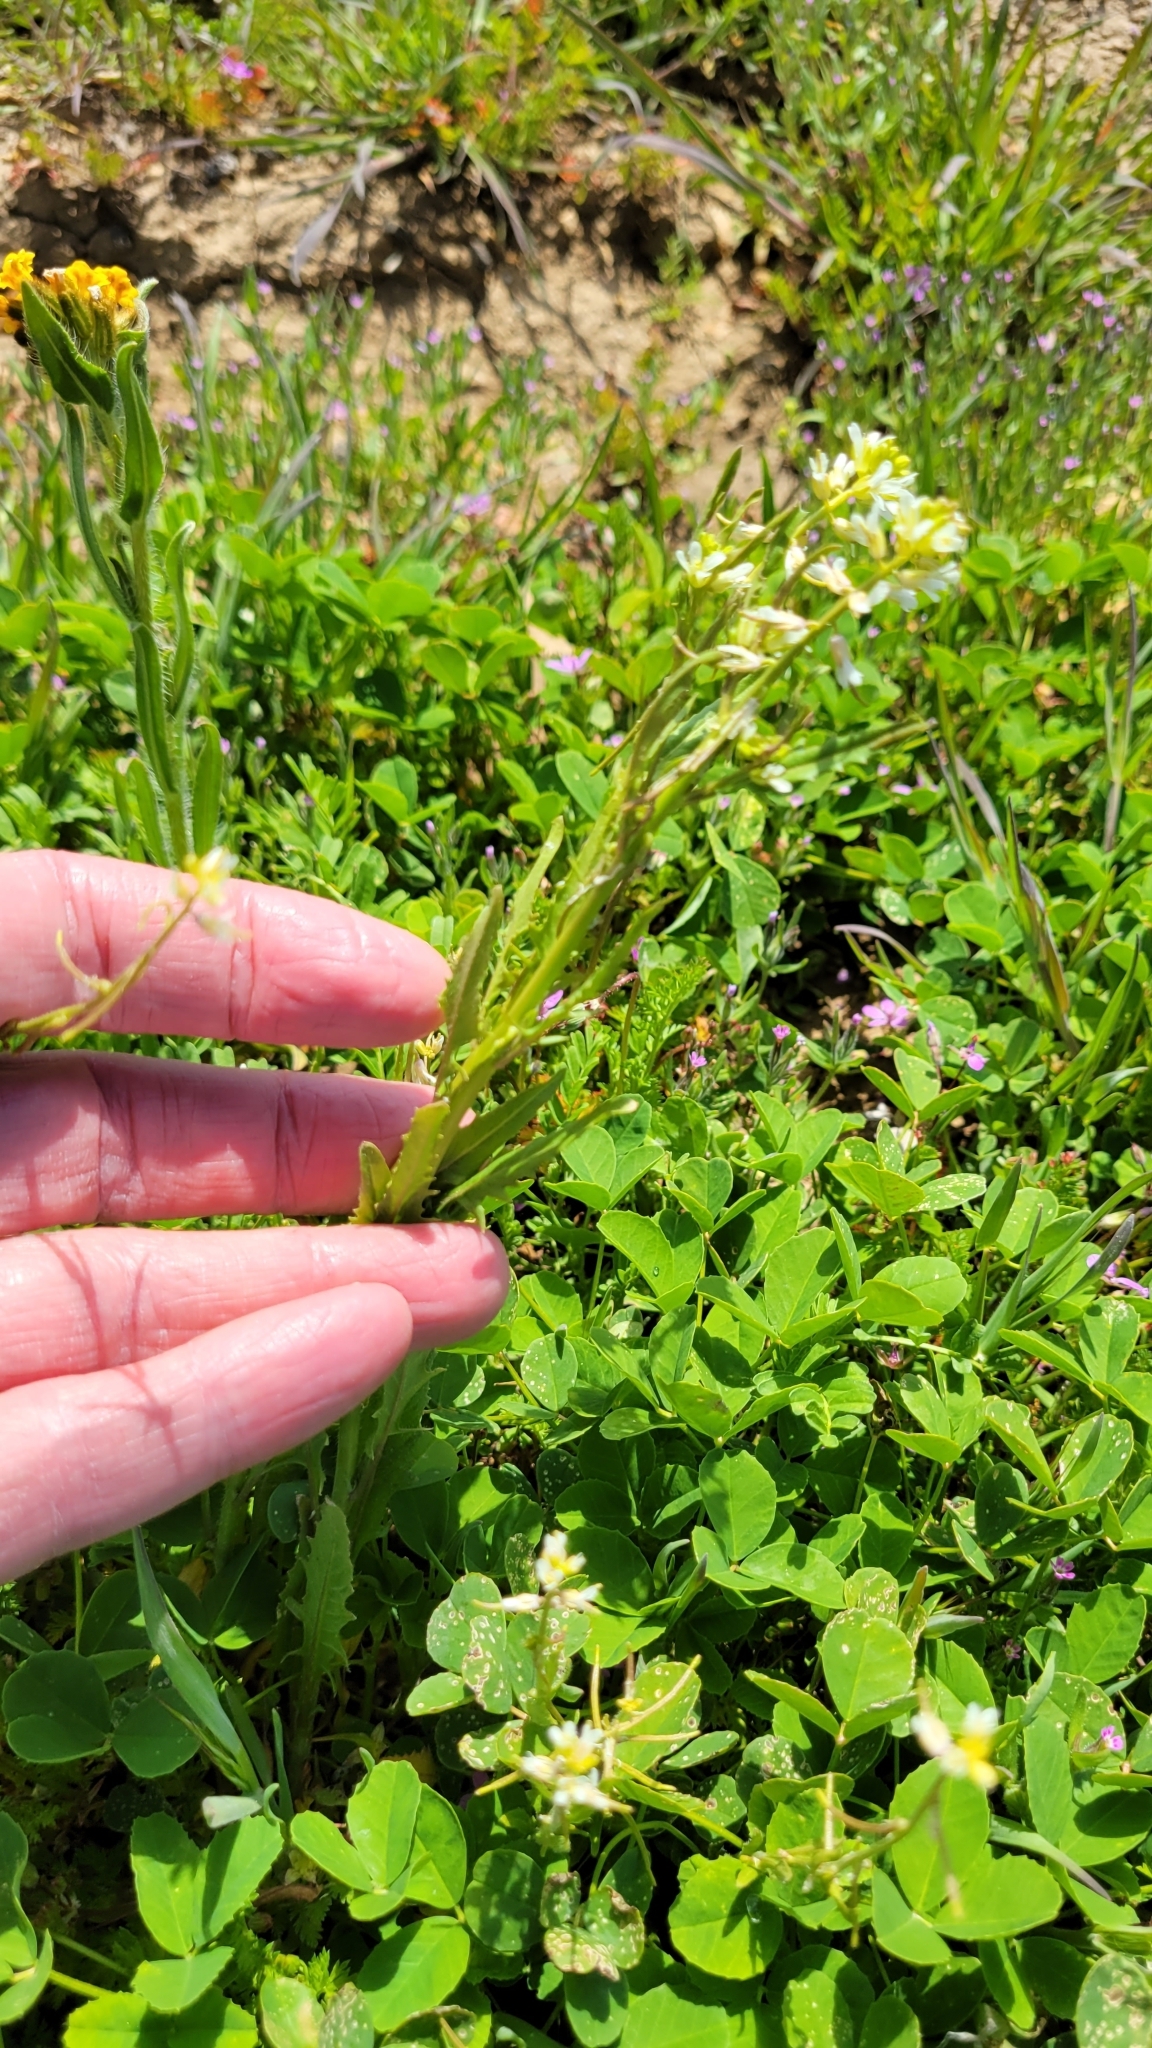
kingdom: Plantae
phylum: Tracheophyta
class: Magnoliopsida
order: Brassicales
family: Brassicaceae
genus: Streptanthus
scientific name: Streptanthus lasiophyllus
